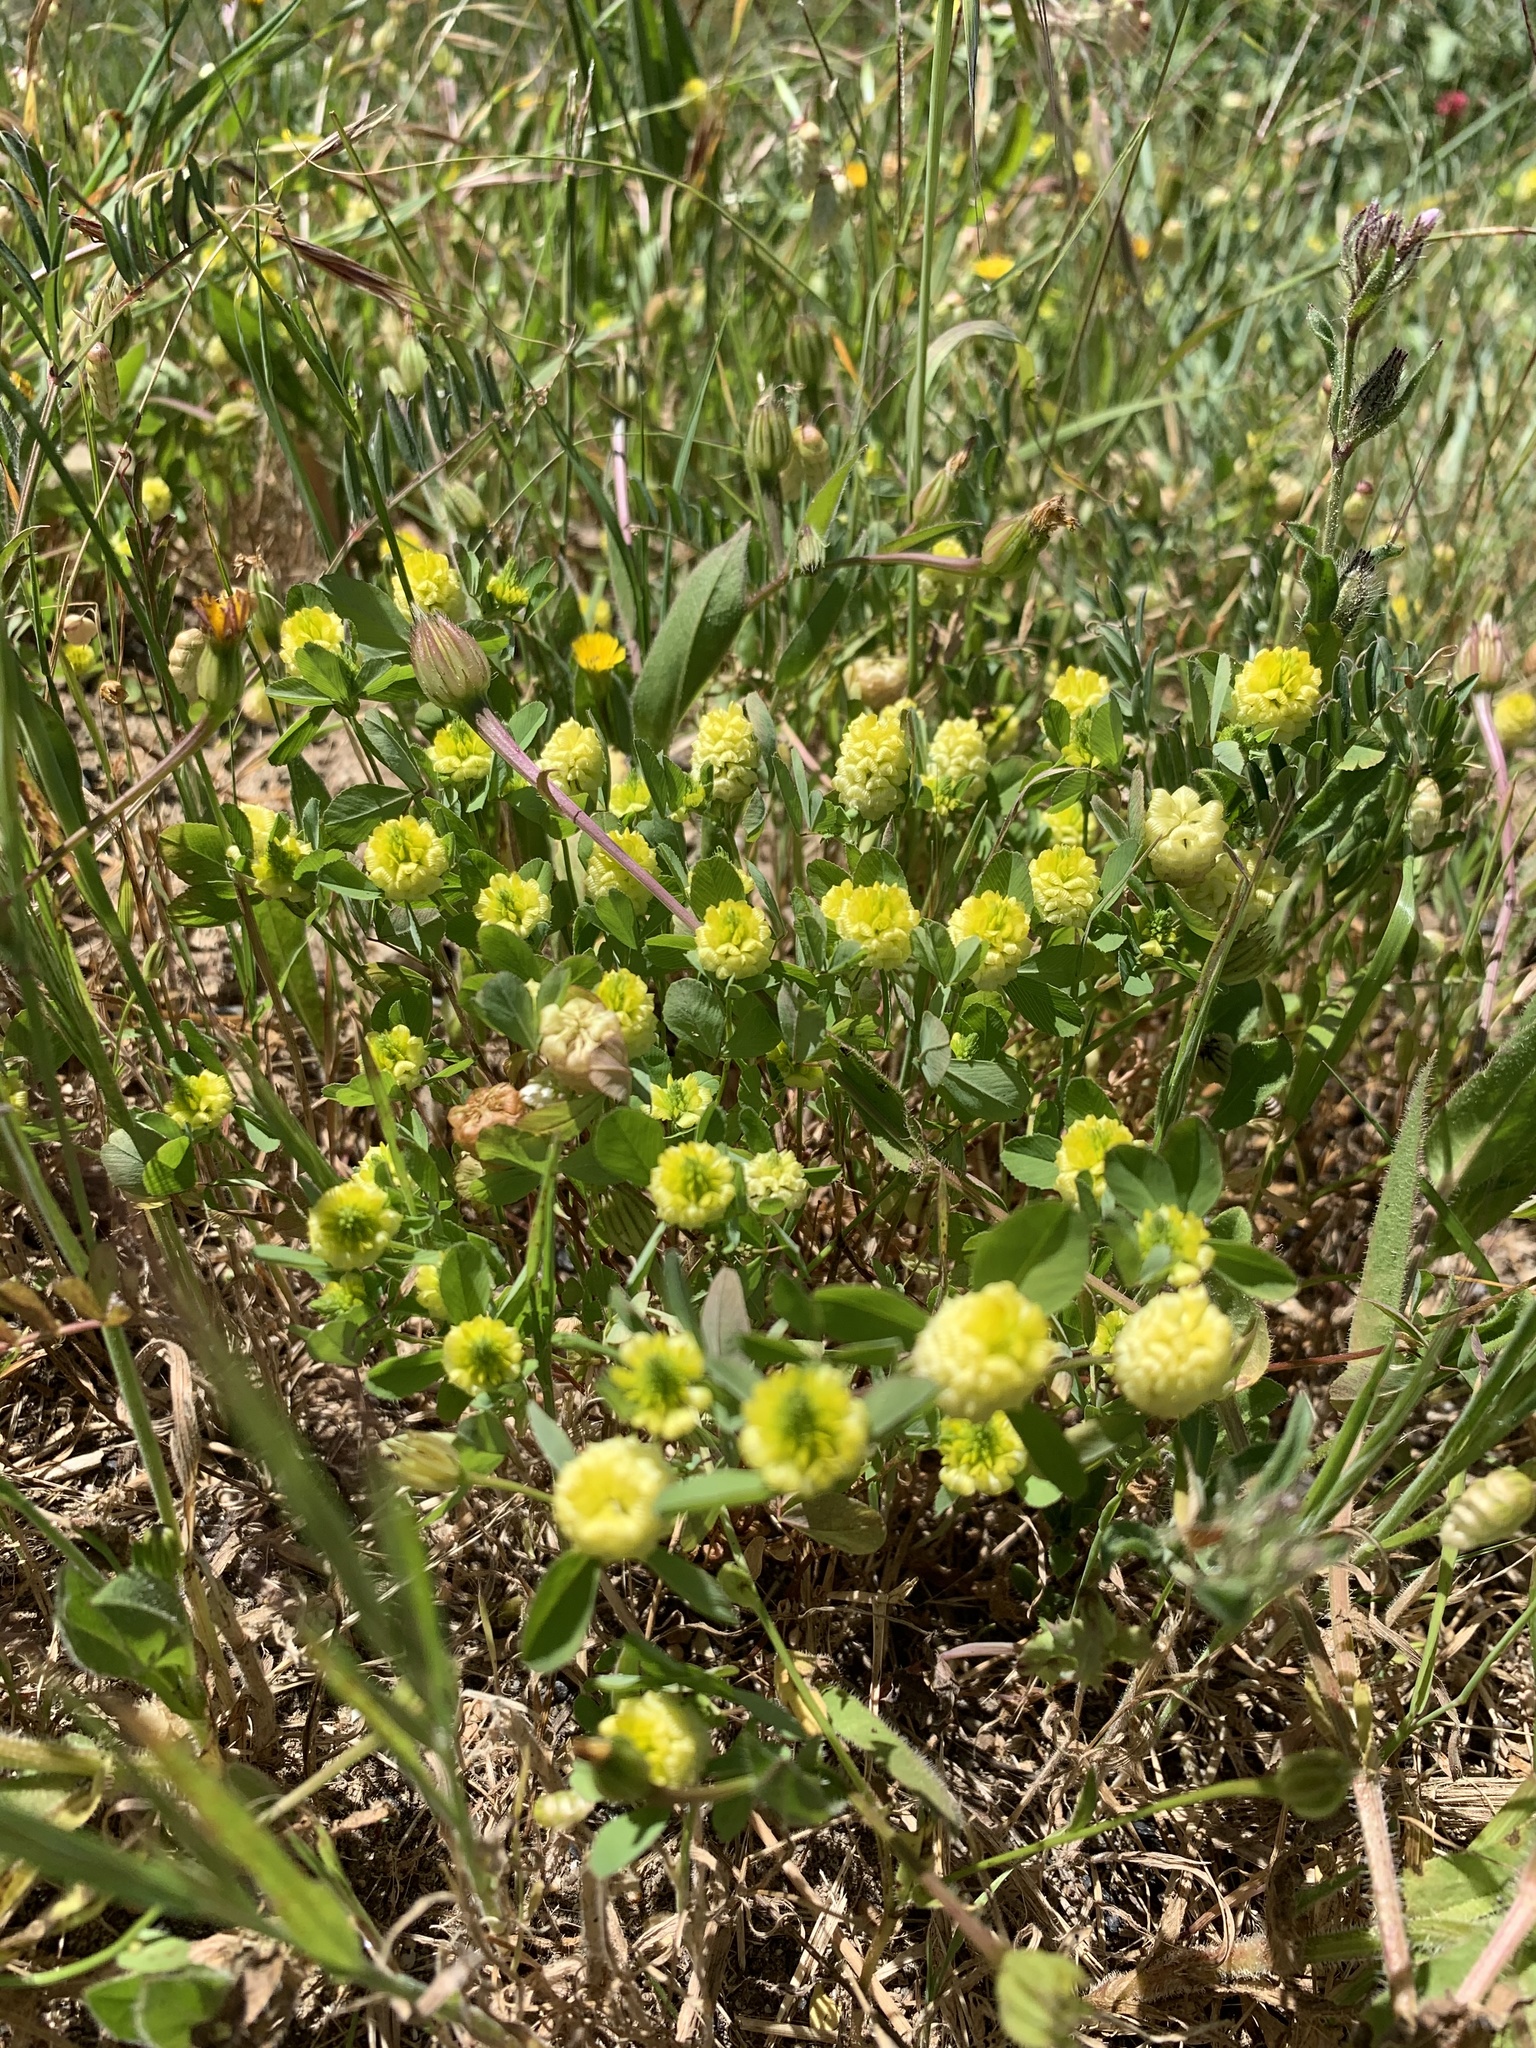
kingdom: Plantae
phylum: Tracheophyta
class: Magnoliopsida
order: Fabales
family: Fabaceae
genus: Trifolium
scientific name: Trifolium campestre
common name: Field clover
